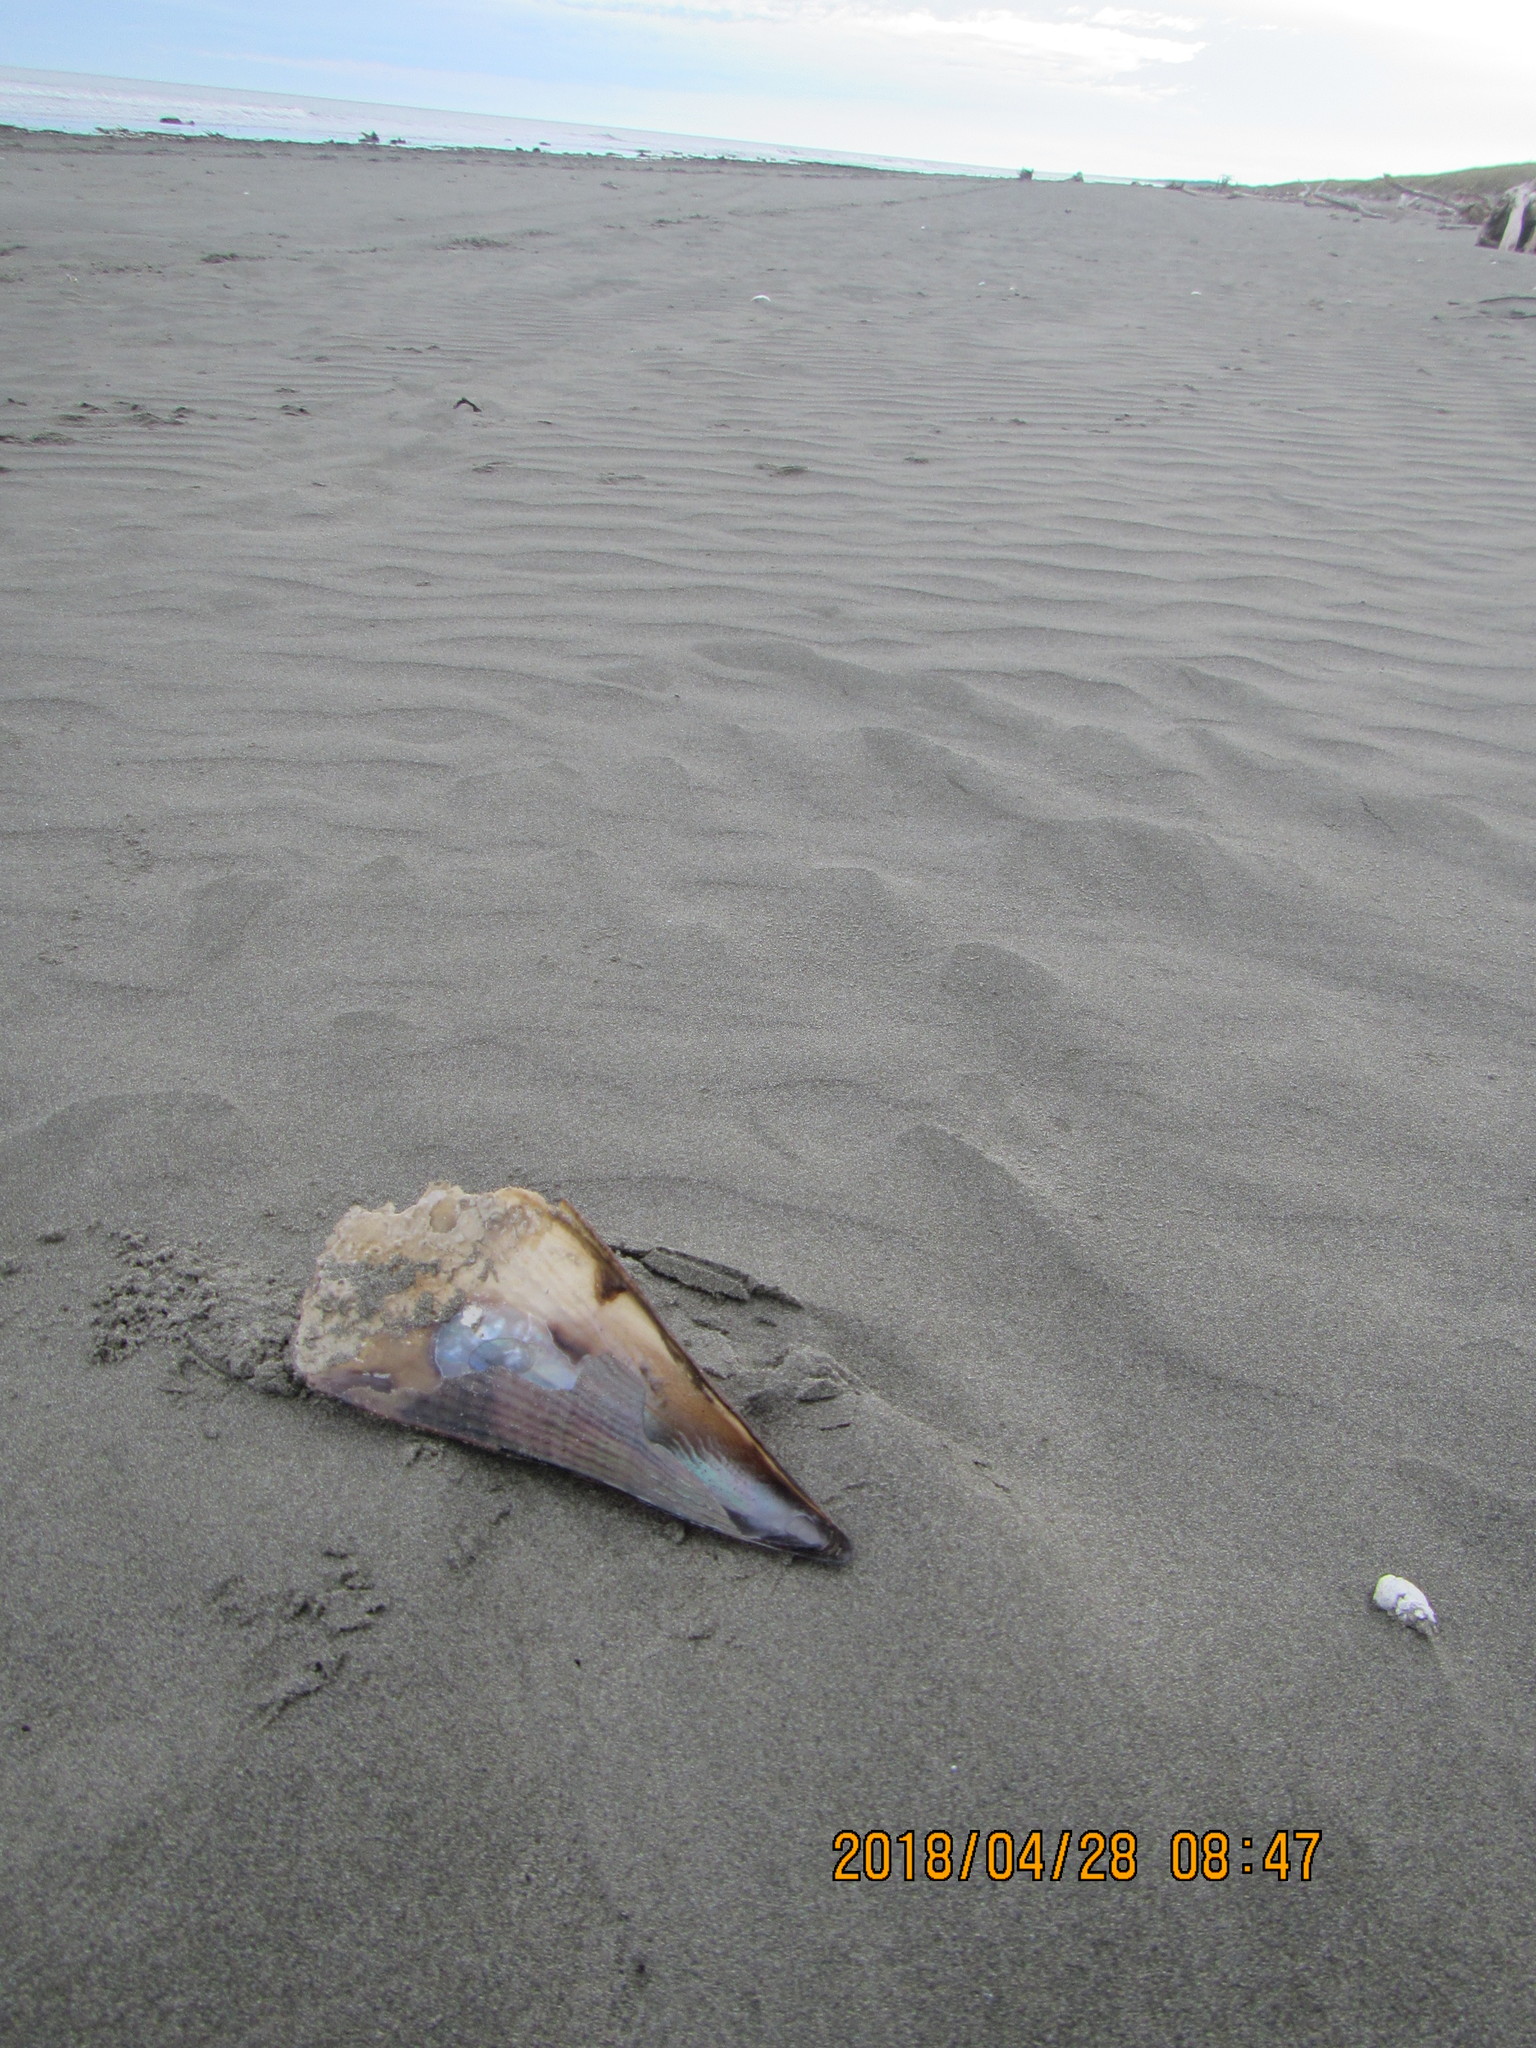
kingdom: Animalia
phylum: Mollusca
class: Bivalvia
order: Ostreida
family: Pinnidae
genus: Atrina
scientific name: Atrina zelandica
